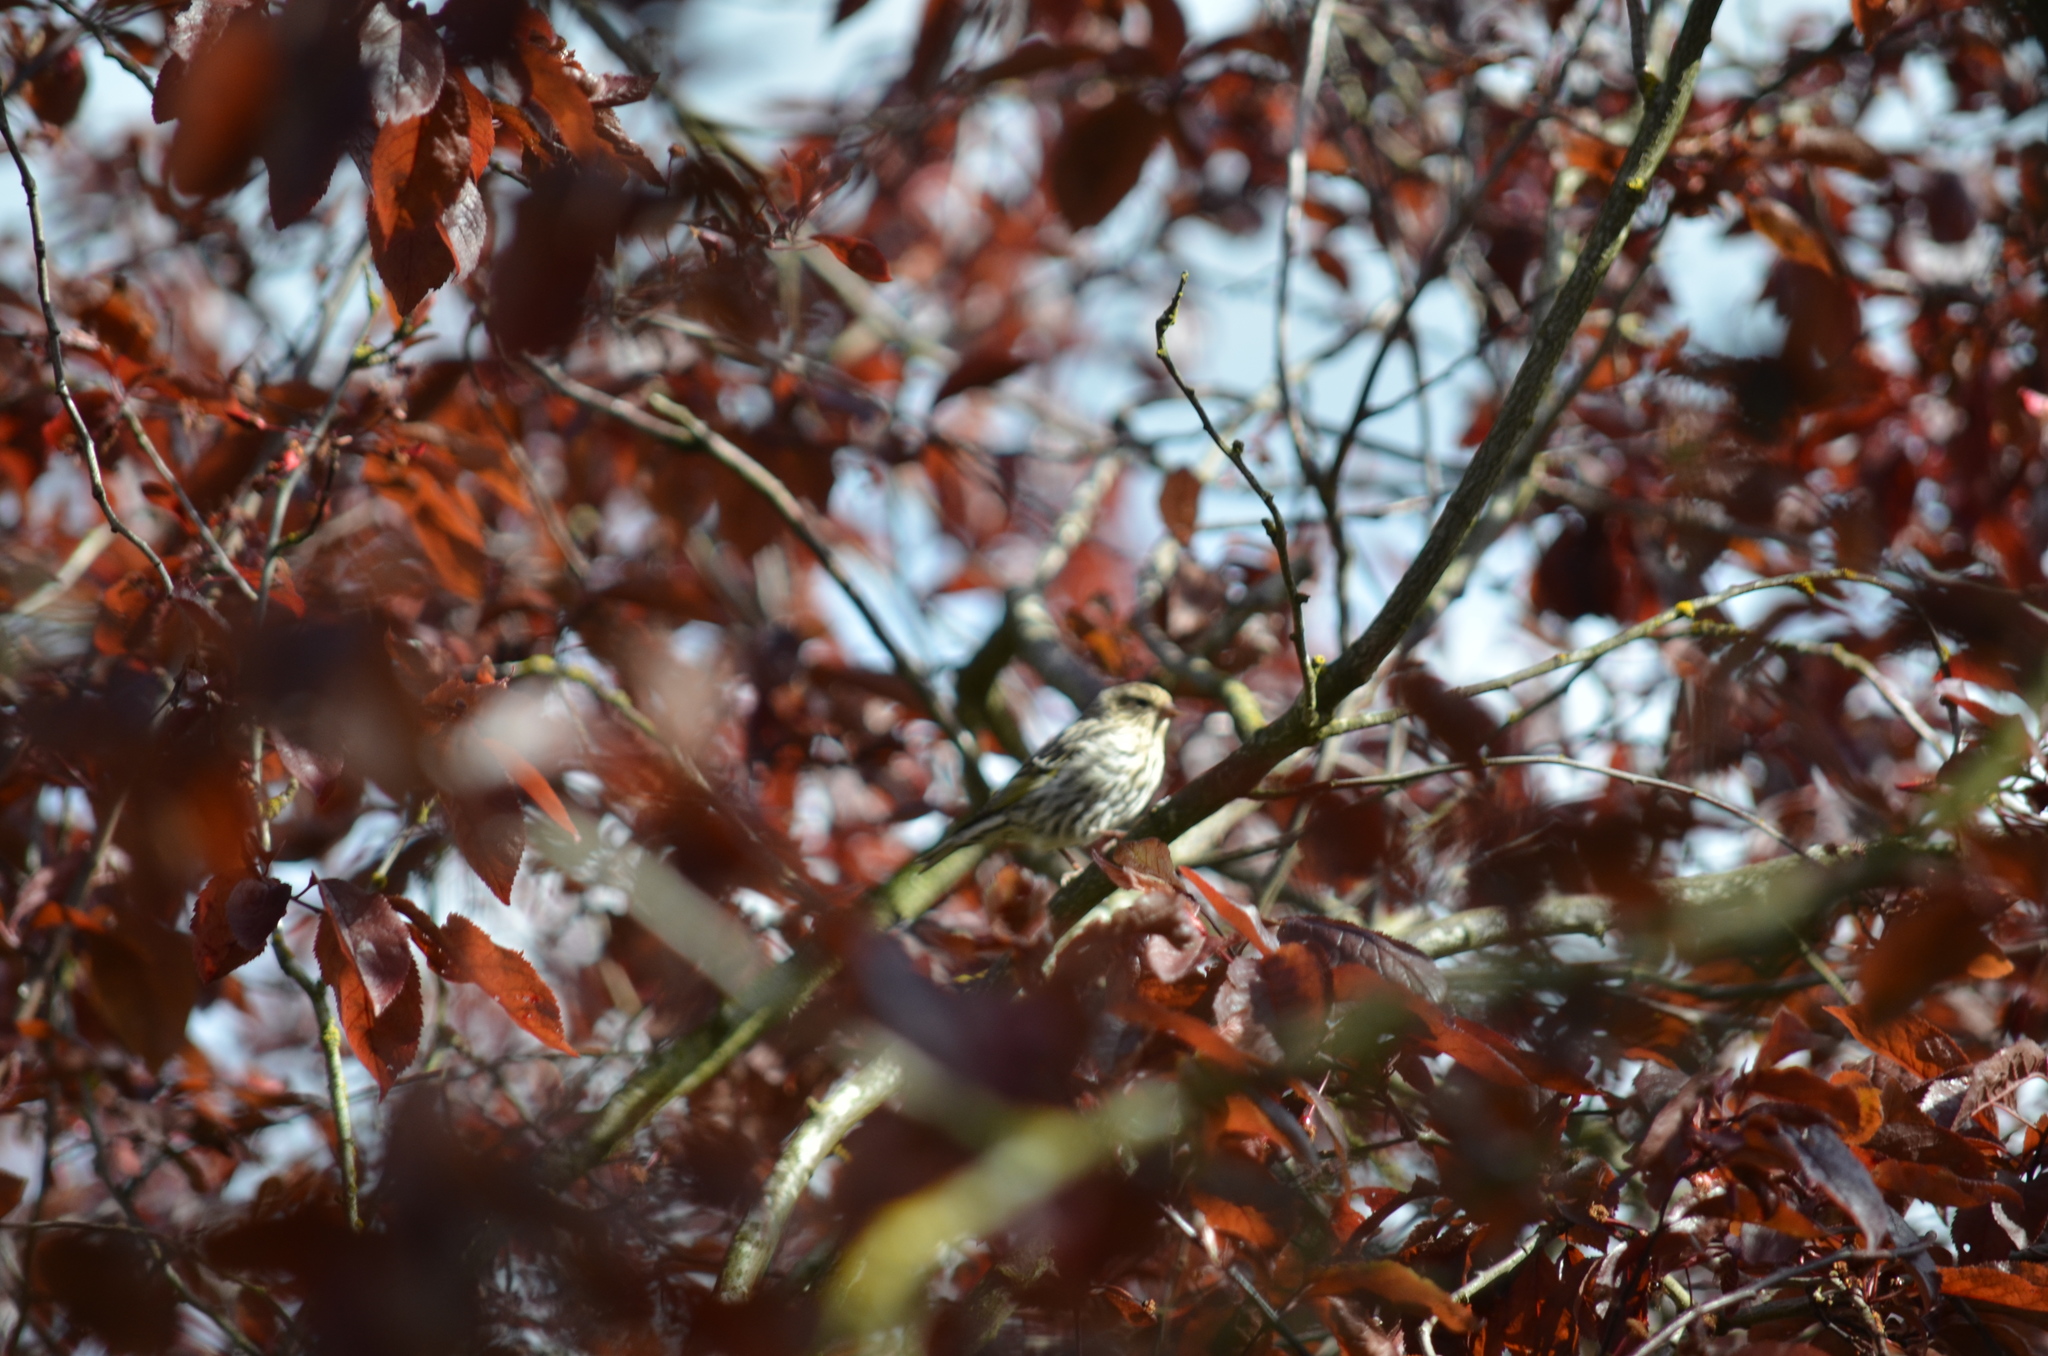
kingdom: Animalia
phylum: Chordata
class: Aves
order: Passeriformes
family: Fringillidae
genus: Spinus
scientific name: Spinus pinus
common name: Pine siskin
